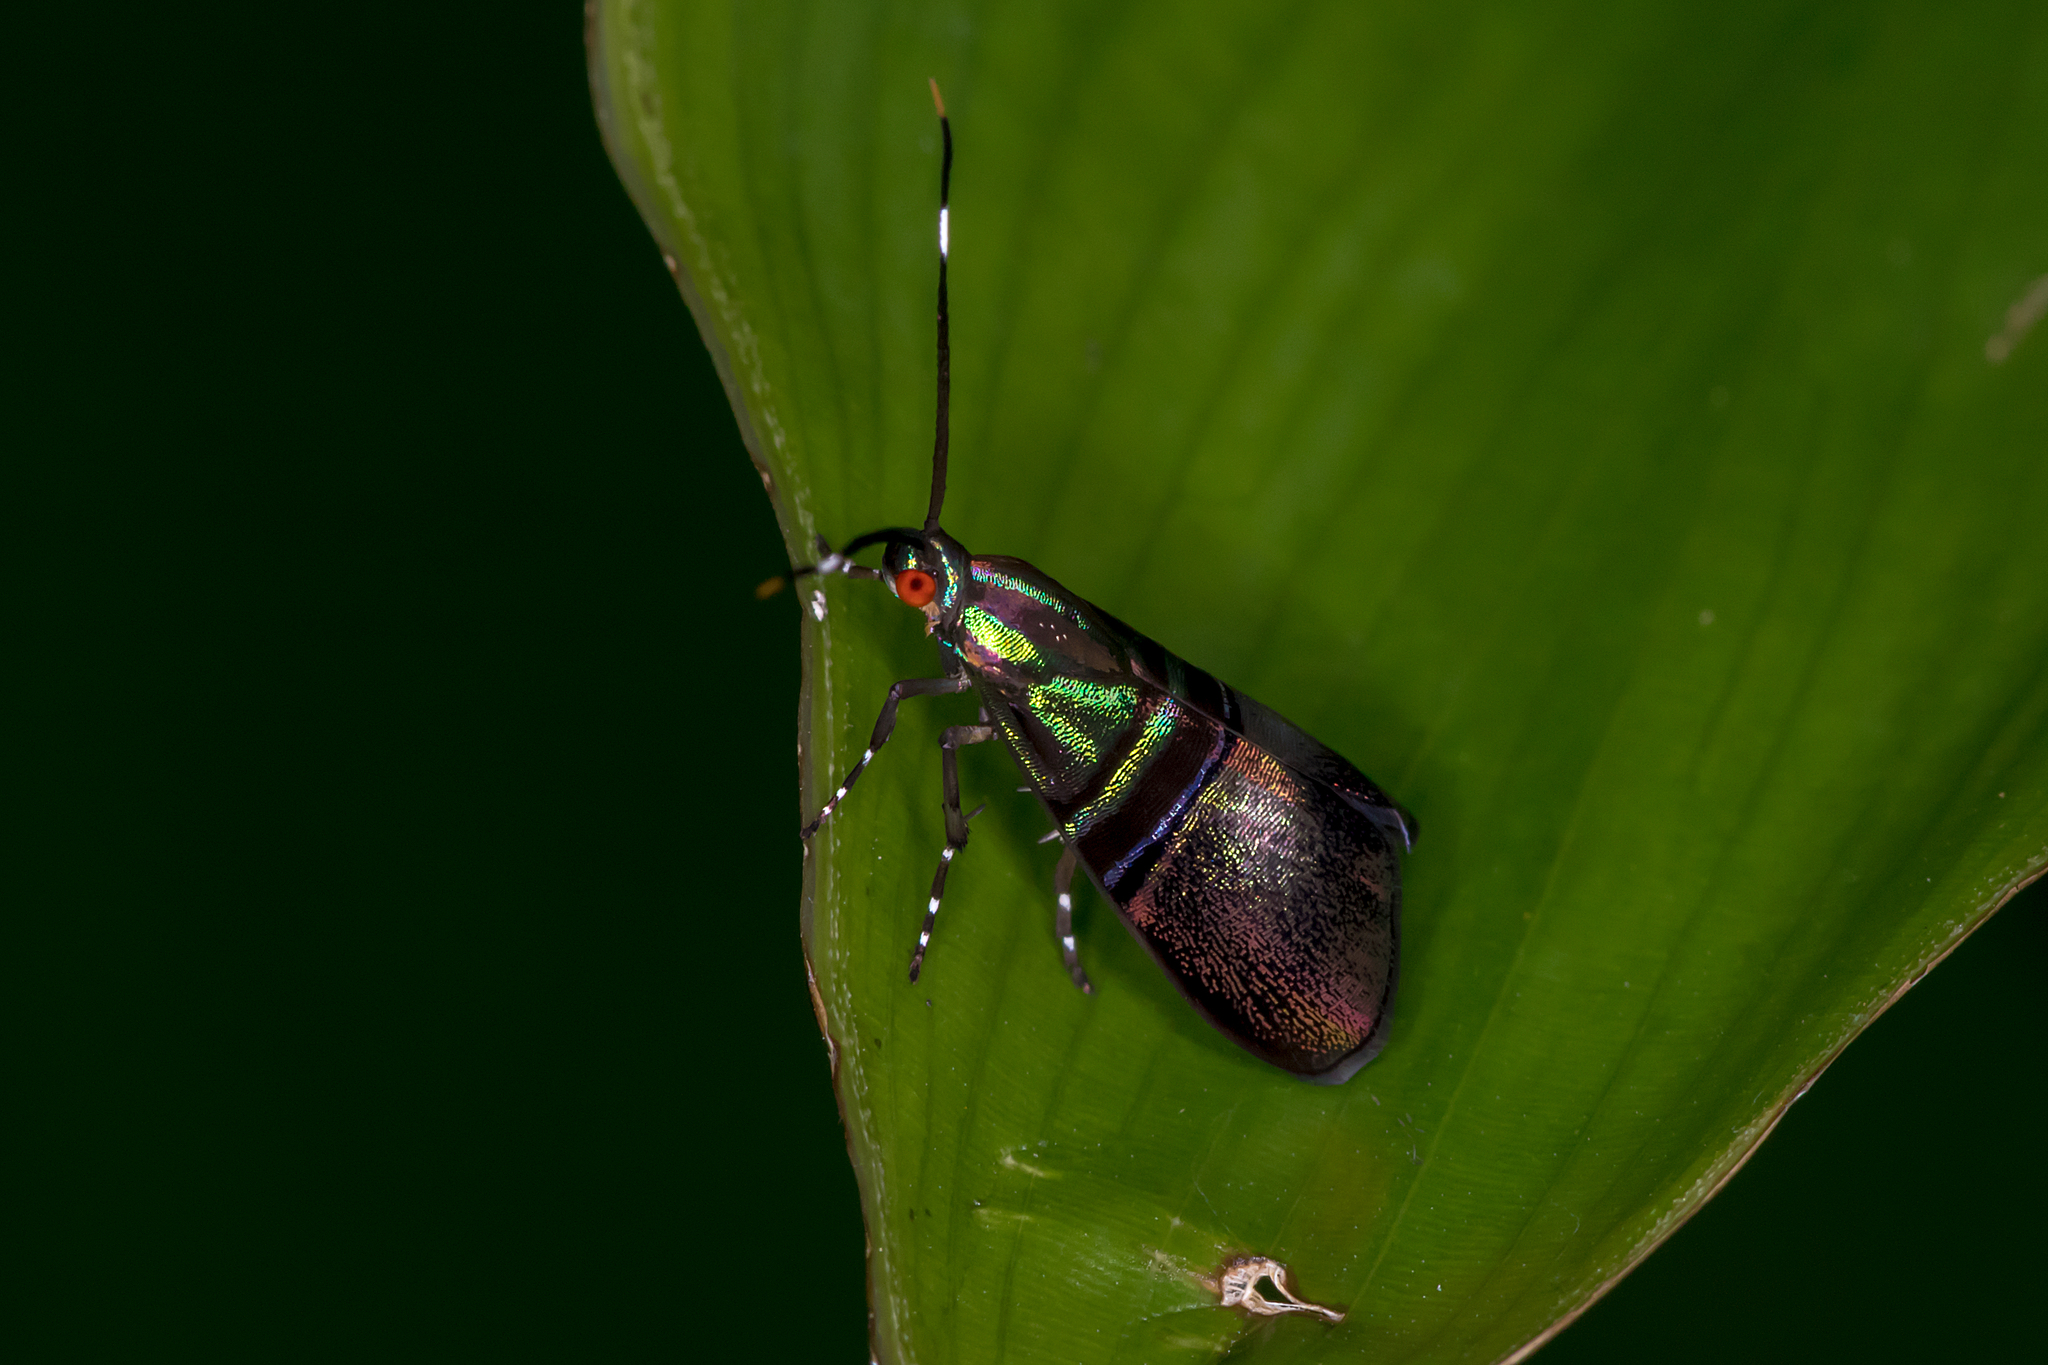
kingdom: Animalia
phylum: Arthropoda
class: Insecta
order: Lepidoptera
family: Choreutidae
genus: Saptha
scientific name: Saptha libanota
